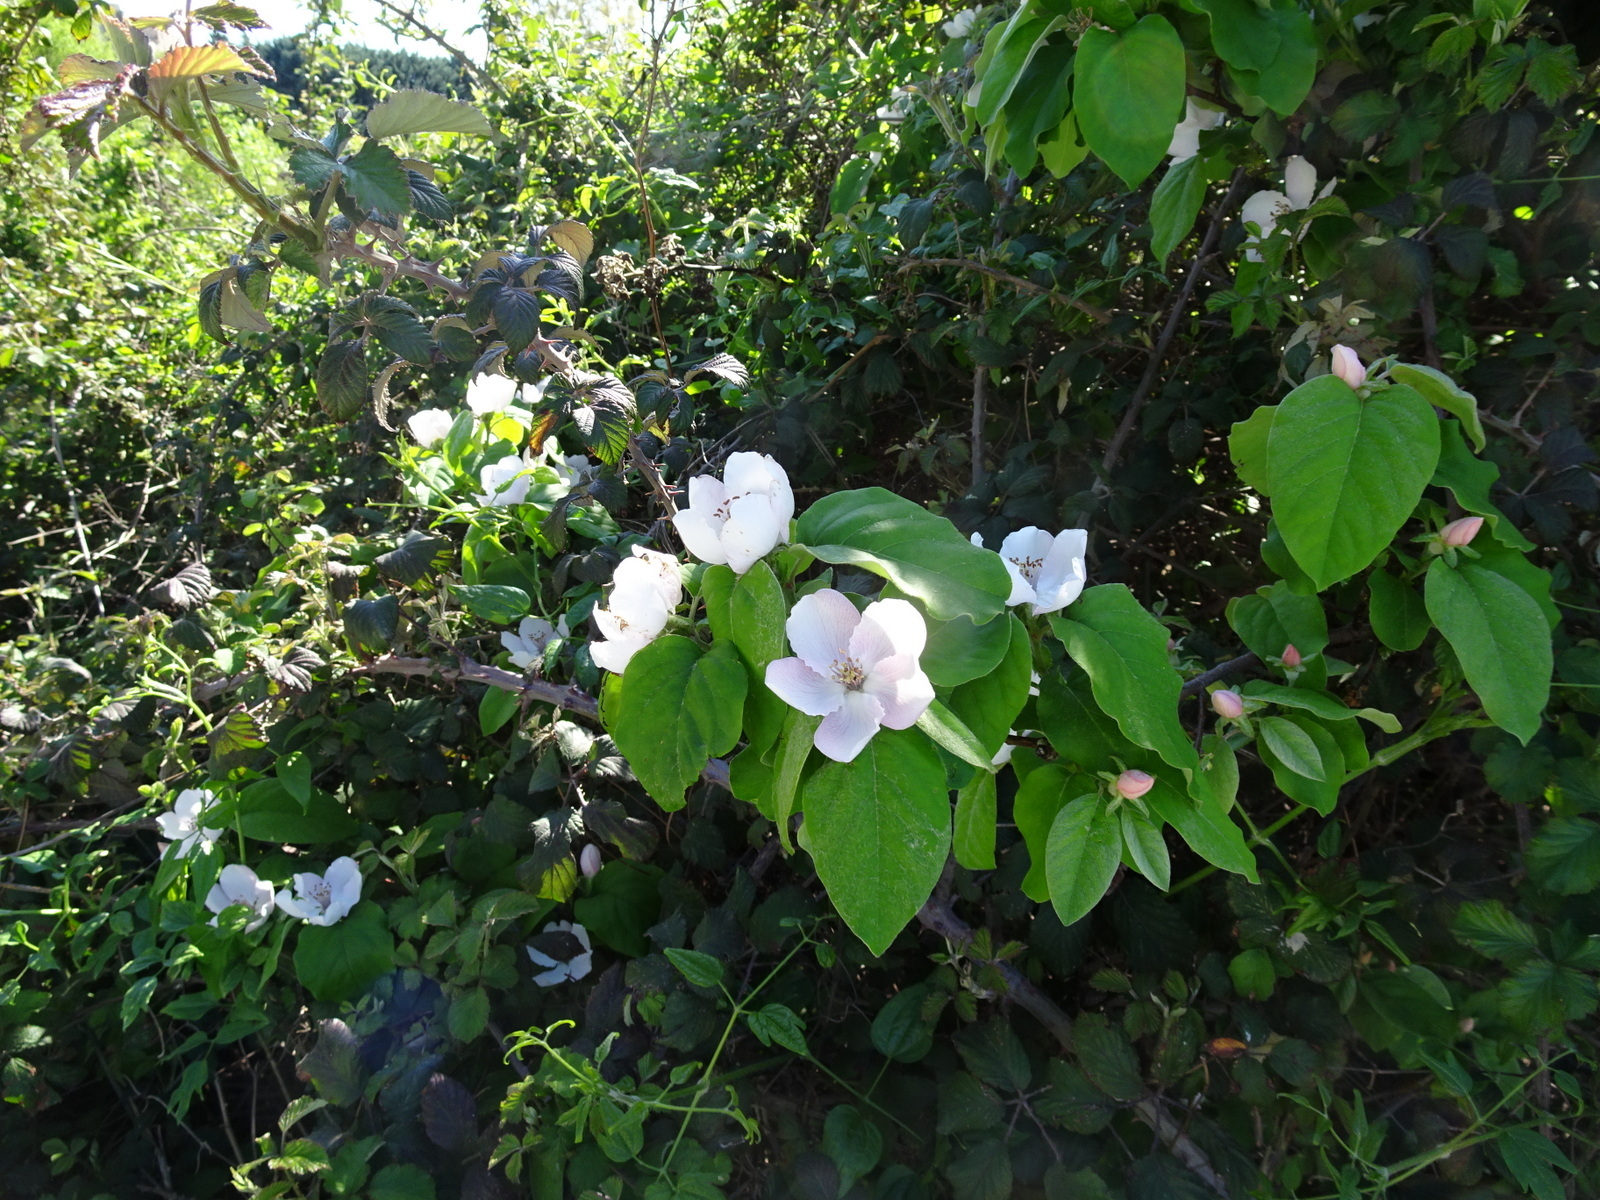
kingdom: Plantae
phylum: Tracheophyta
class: Magnoliopsida
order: Rosales
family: Rosaceae
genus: Cydonia
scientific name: Cydonia oblonga
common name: Quince
